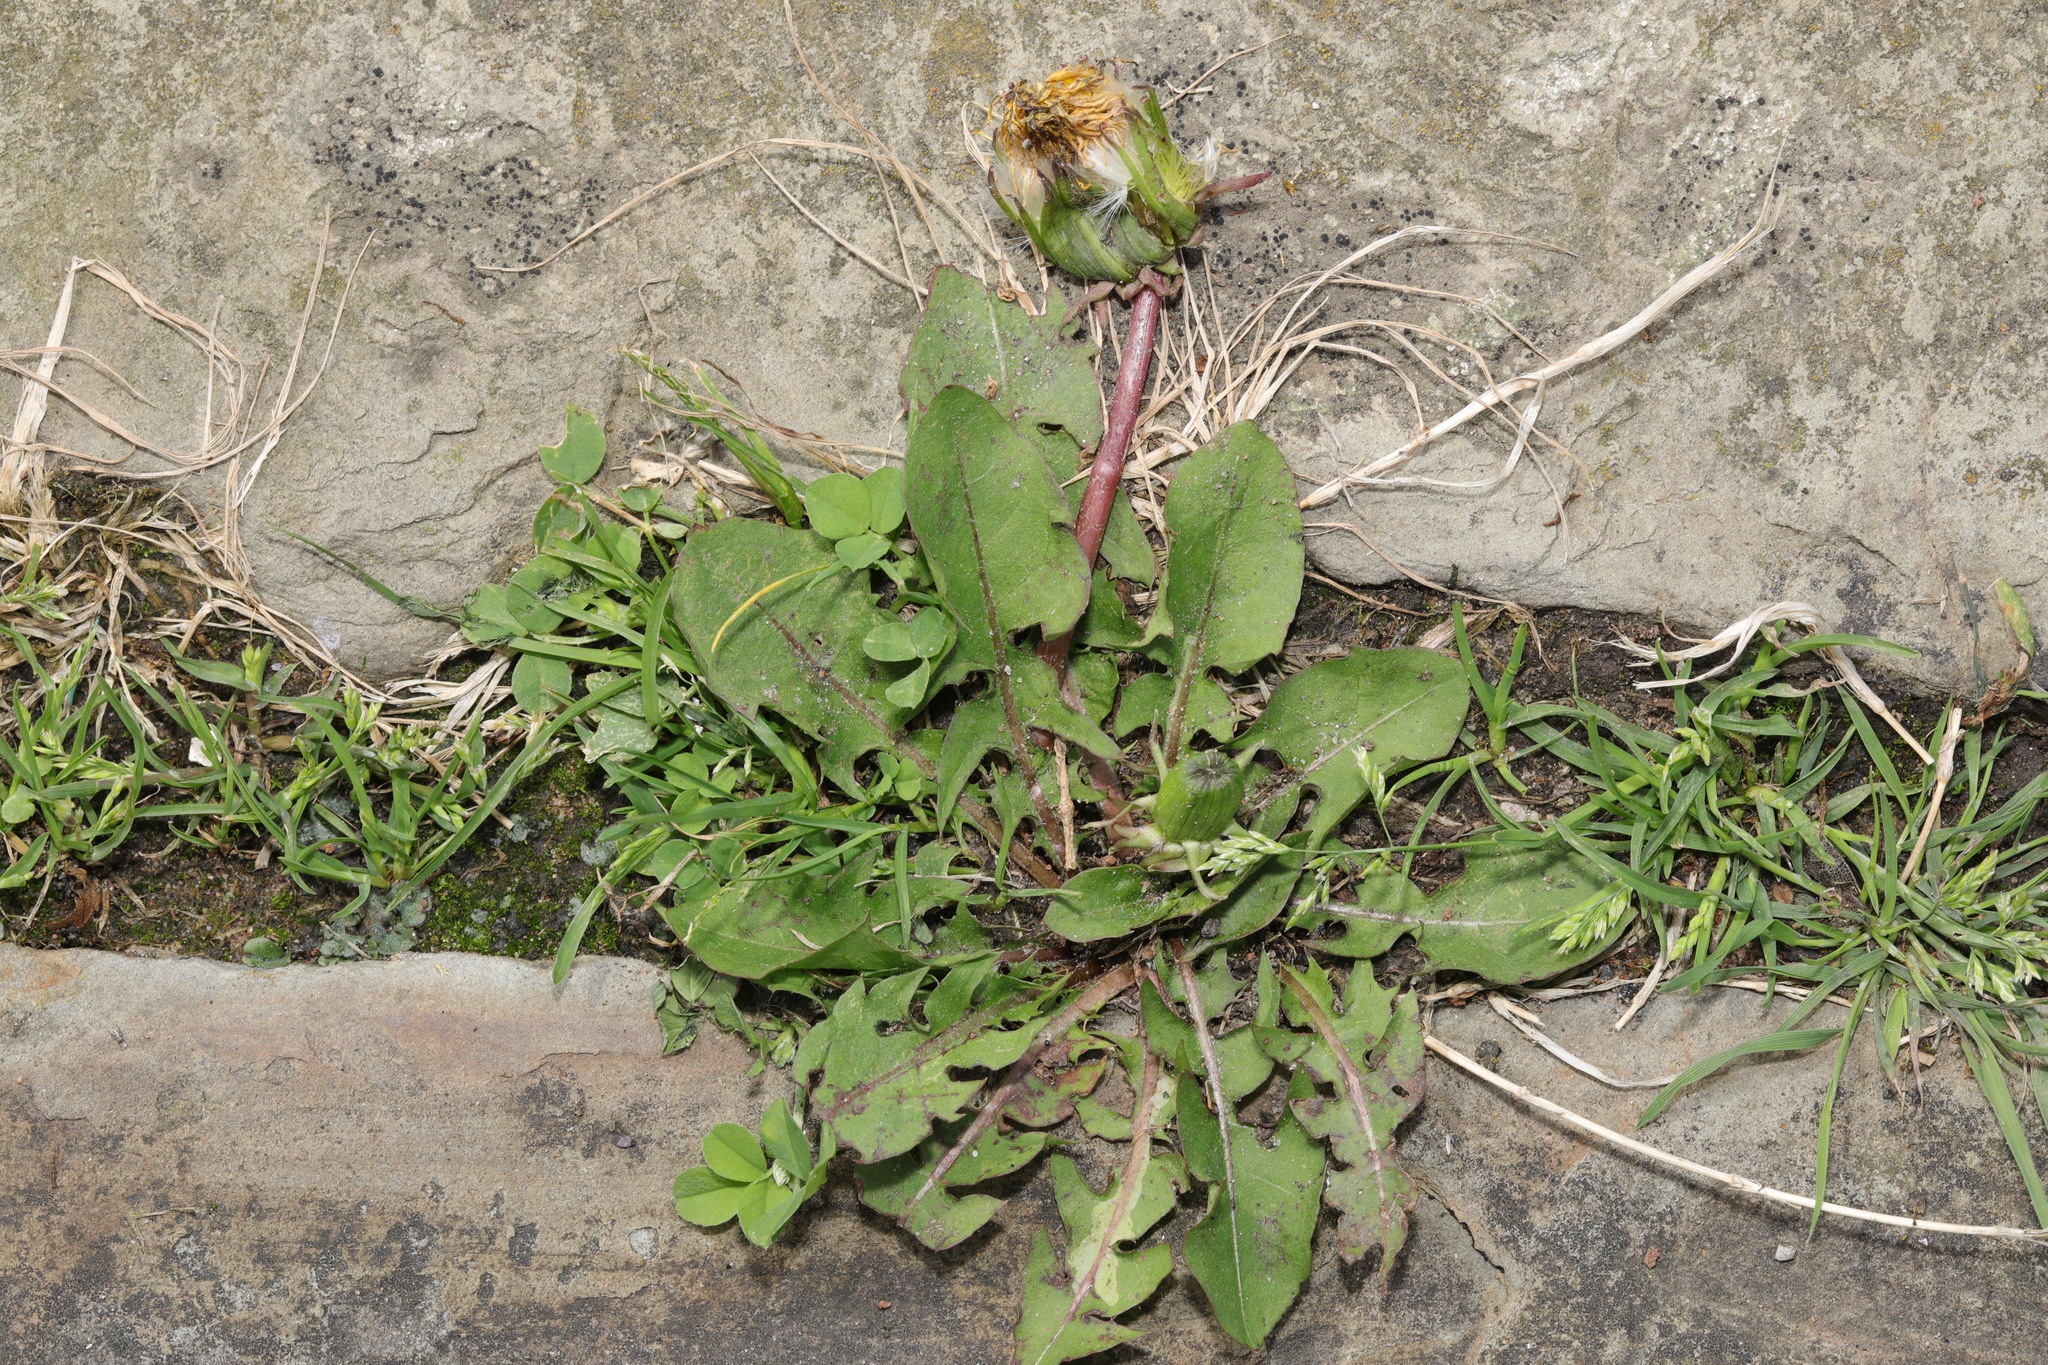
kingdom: Plantae
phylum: Tracheophyta
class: Magnoliopsida
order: Asterales
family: Asteraceae
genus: Taraxacum
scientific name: Taraxacum officinale
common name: Common dandelion
